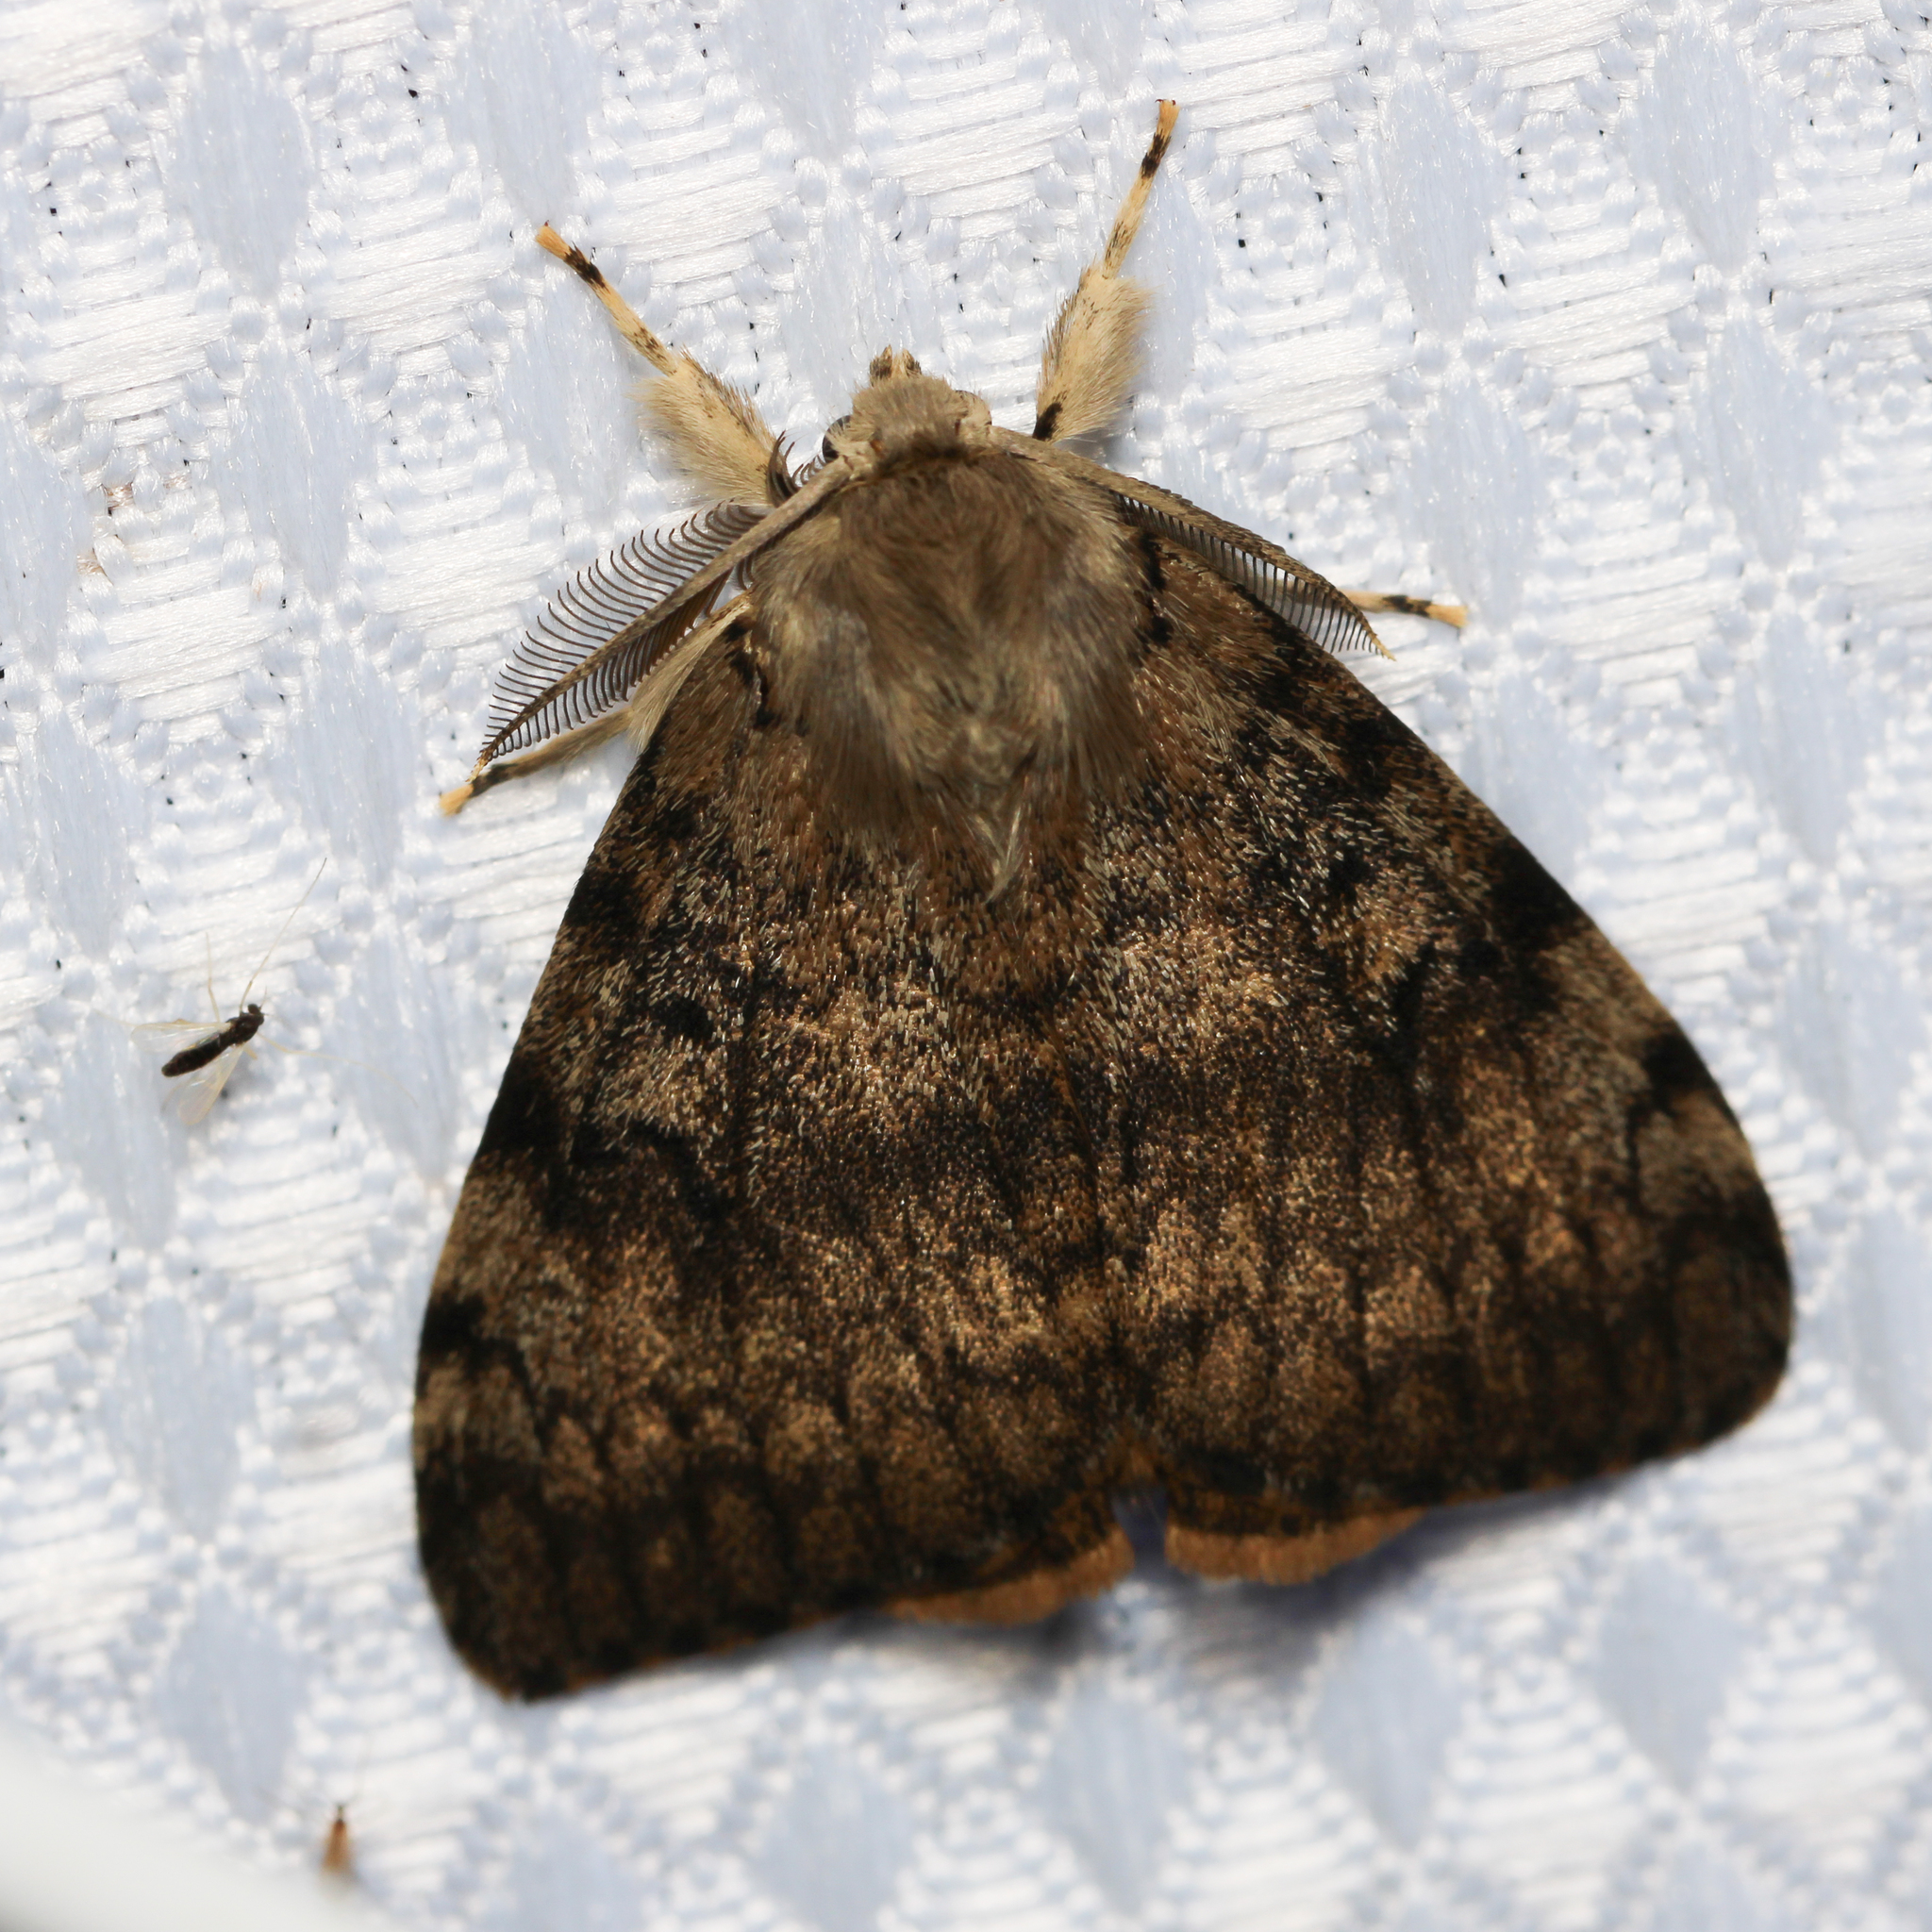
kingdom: Animalia
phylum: Arthropoda
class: Insecta
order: Lepidoptera
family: Erebidae
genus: Lymantria
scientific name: Lymantria dispar
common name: Gypsy moth
